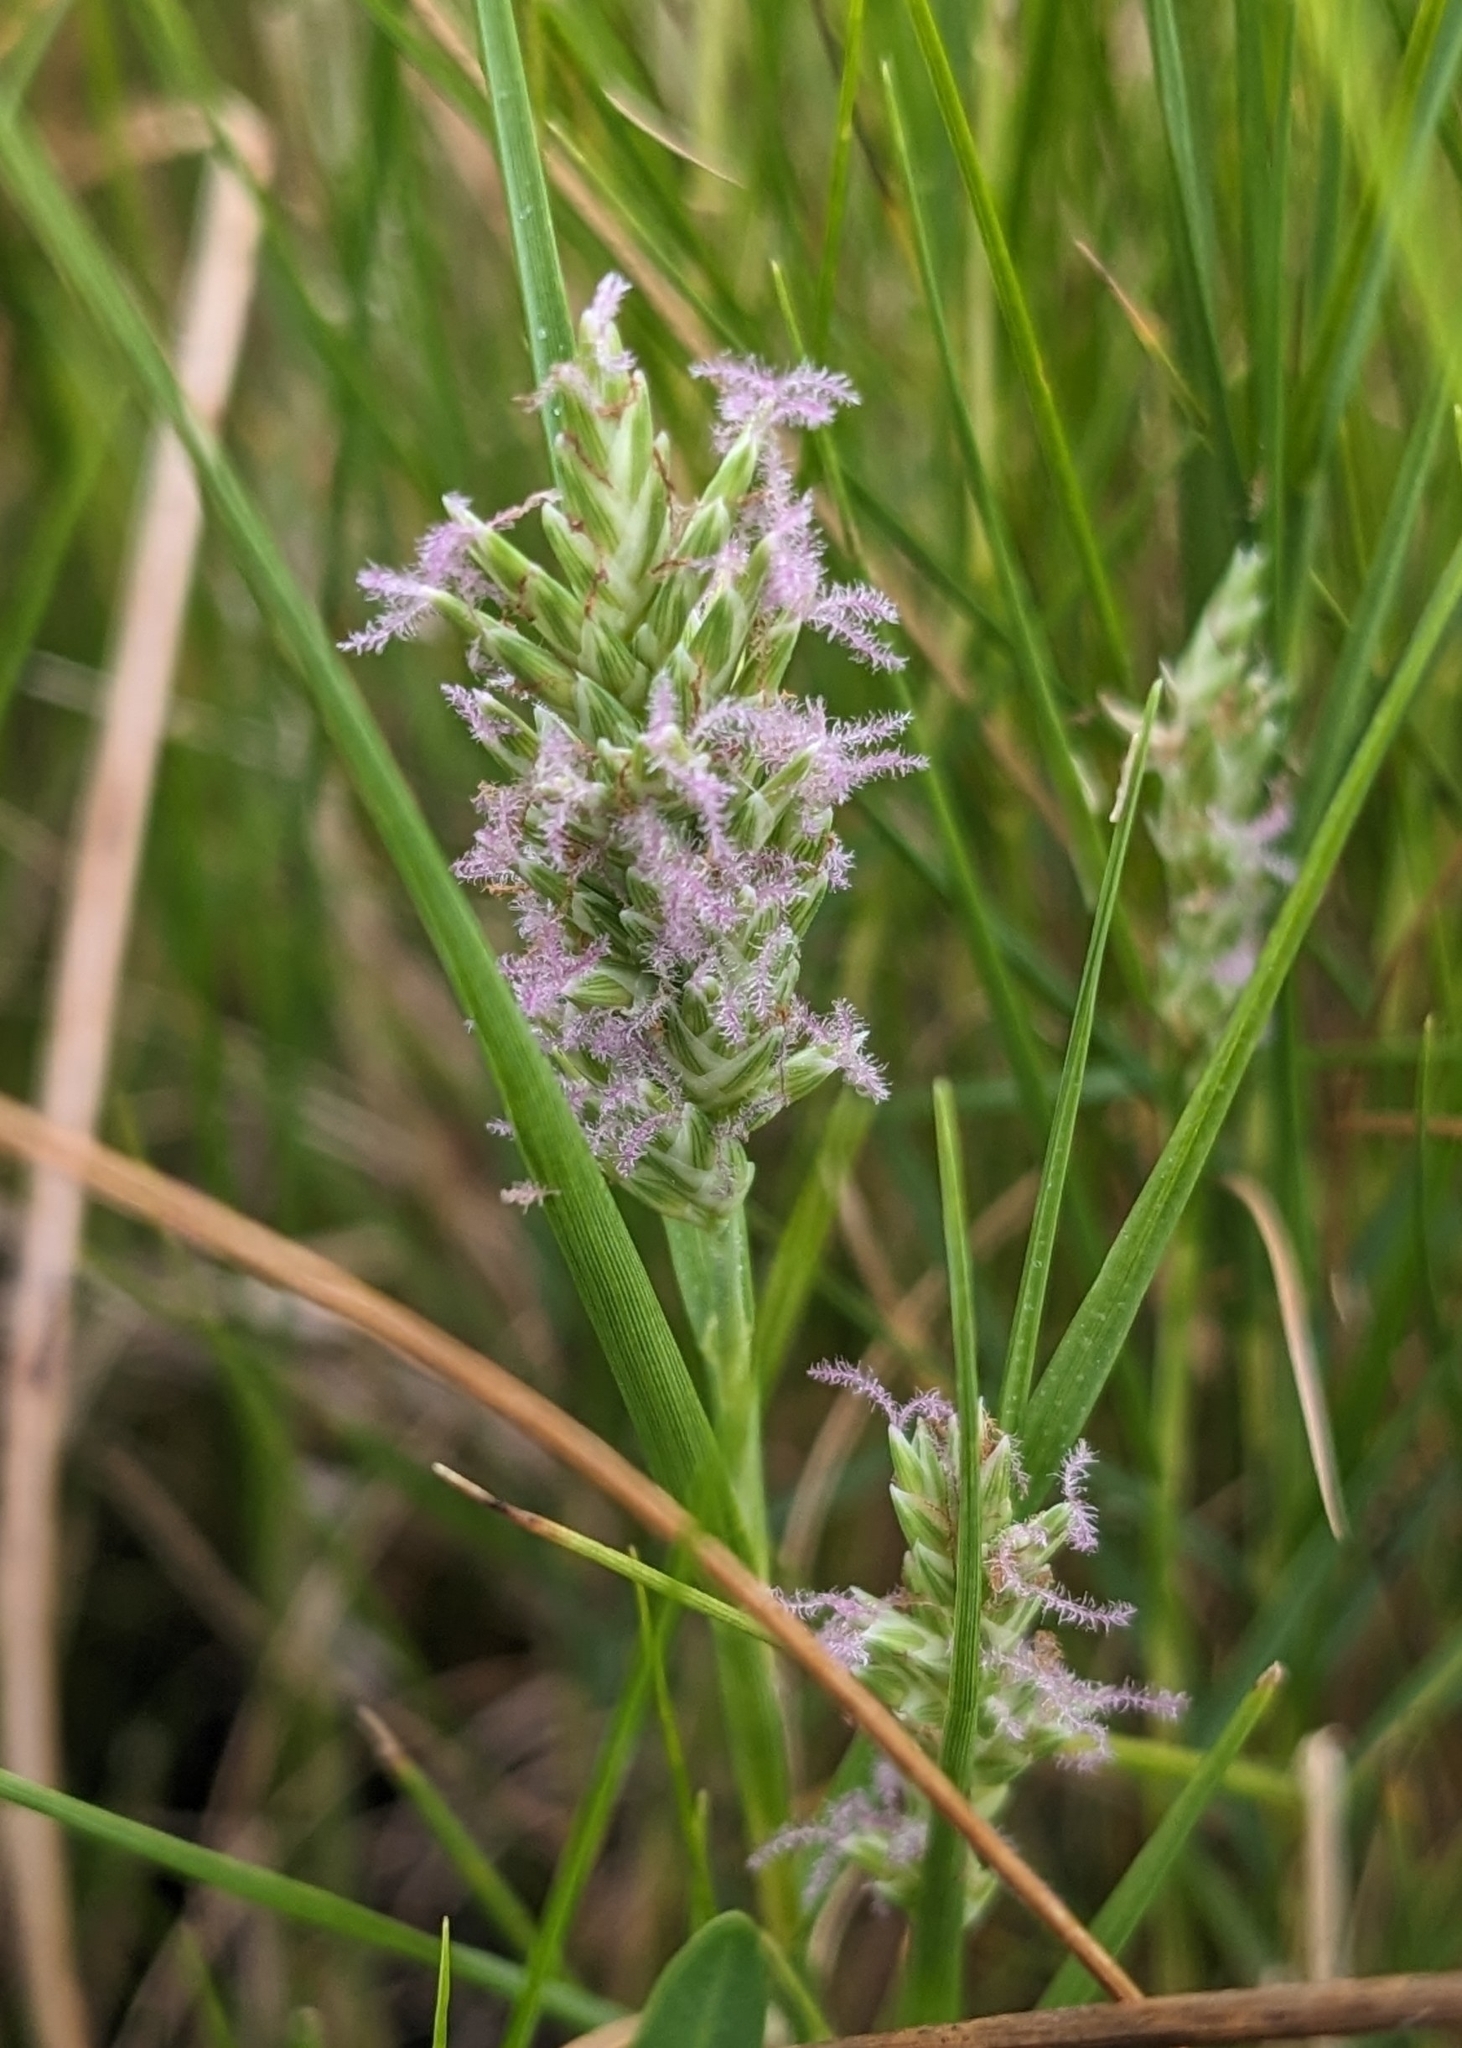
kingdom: Plantae
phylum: Tracheophyta
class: Liliopsida
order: Poales
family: Poaceae
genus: Distichlis
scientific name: Distichlis spicata
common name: Saltgrass
